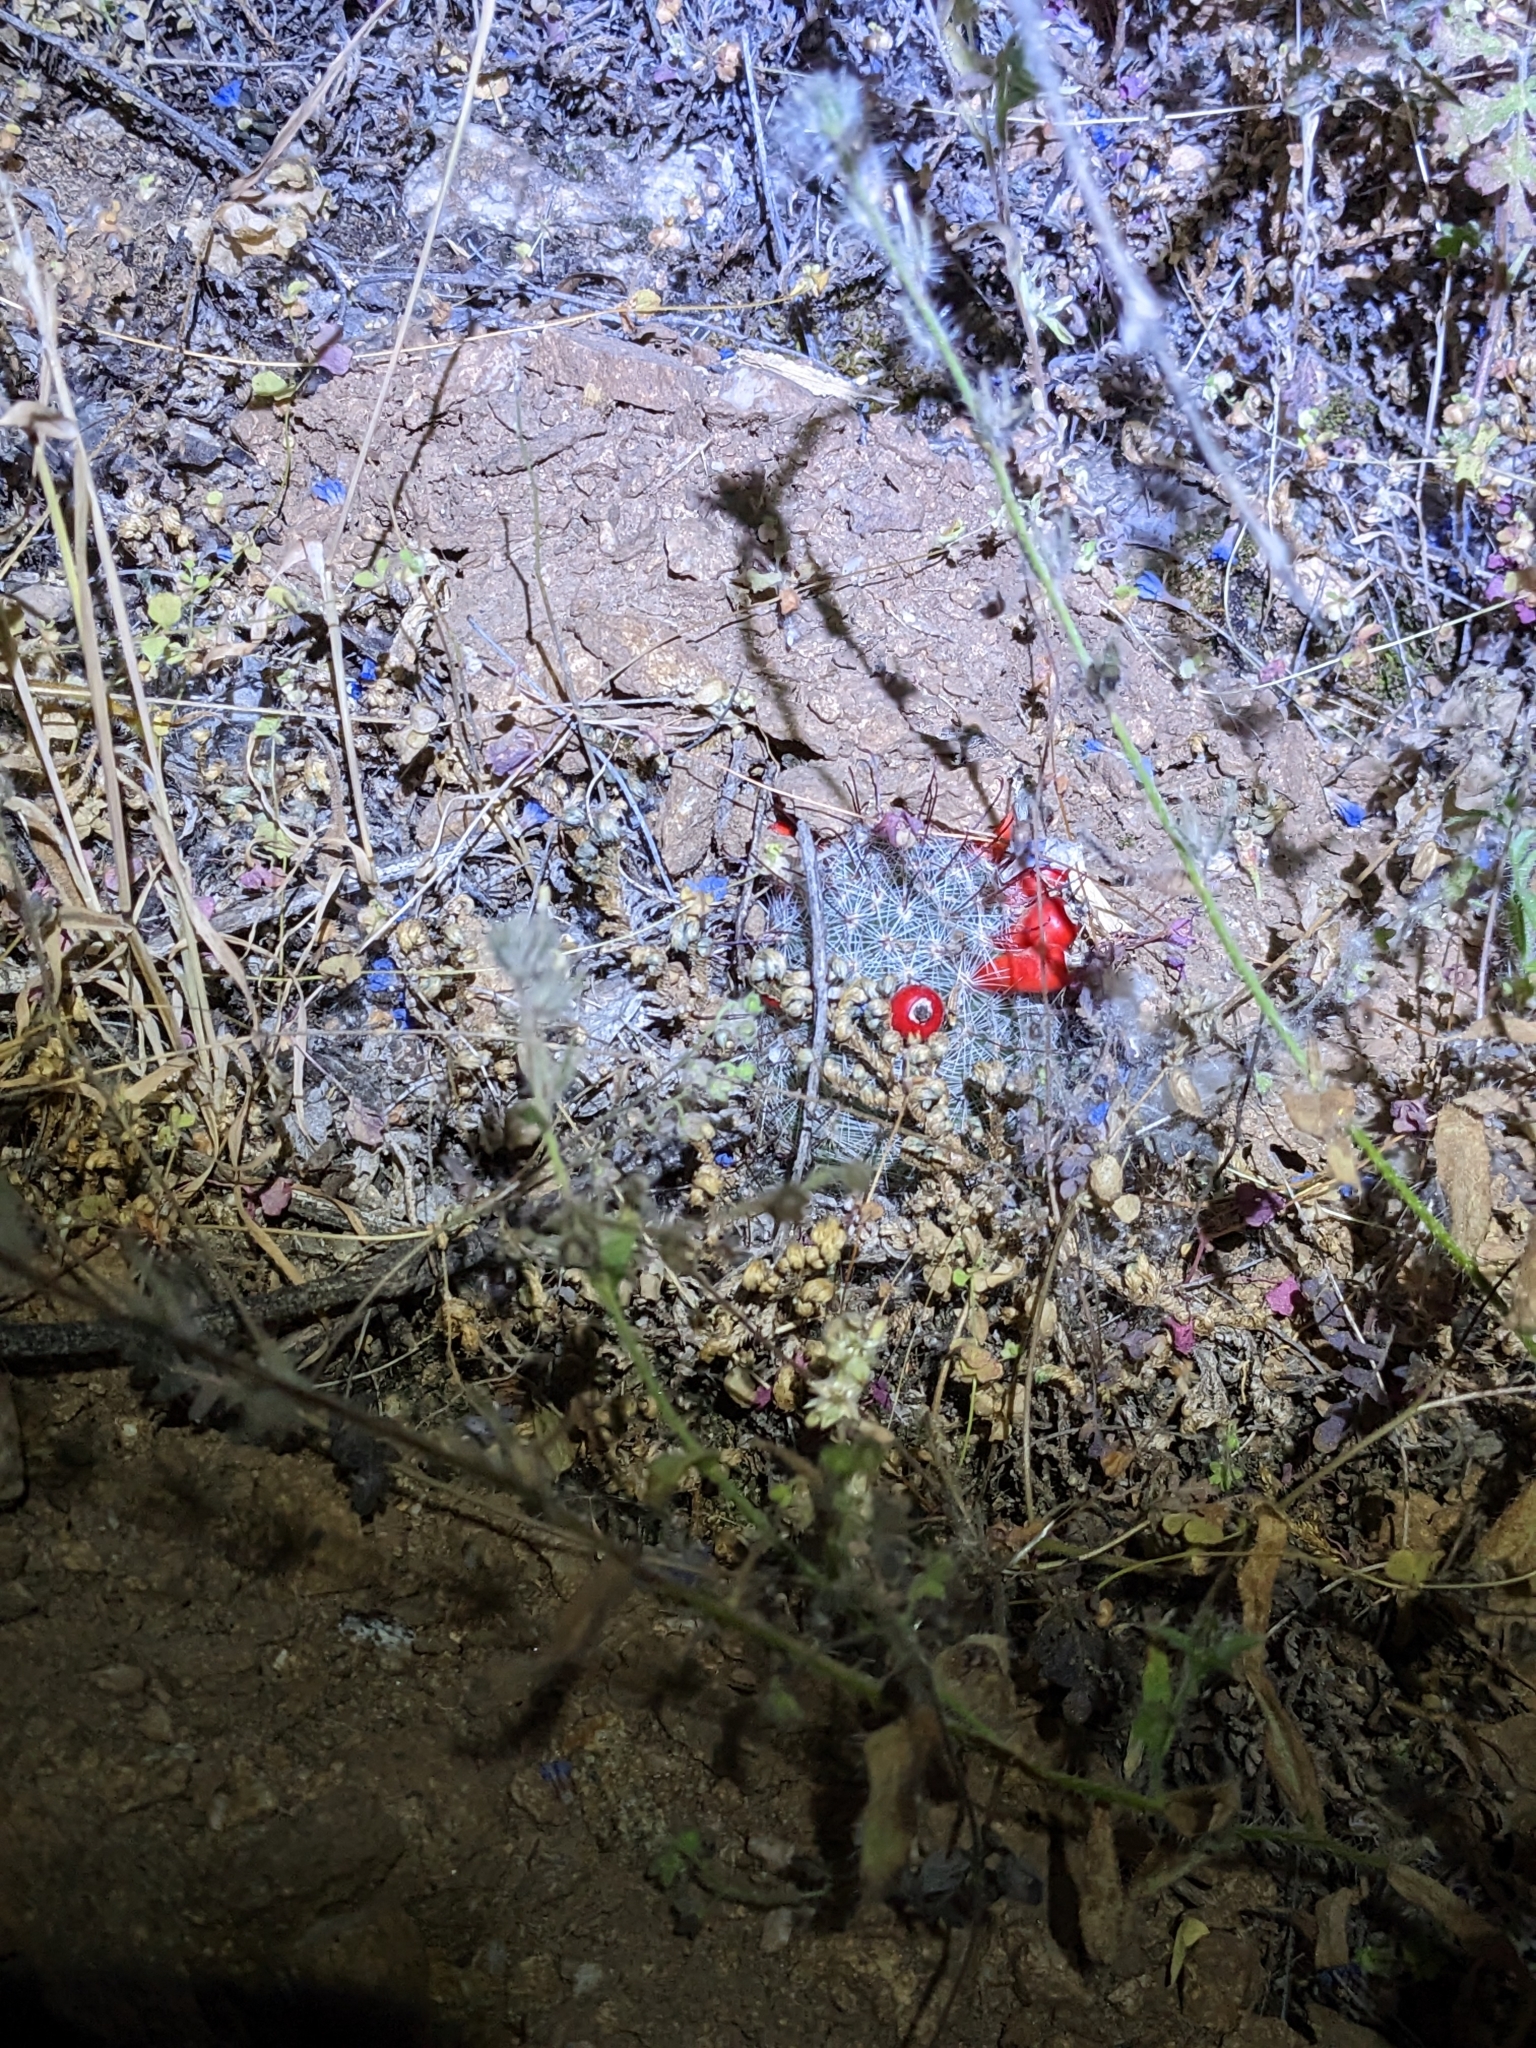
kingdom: Plantae
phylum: Tracheophyta
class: Magnoliopsida
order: Caryophyllales
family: Cactaceae
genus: Cochemiea
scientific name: Cochemiea grahamii
